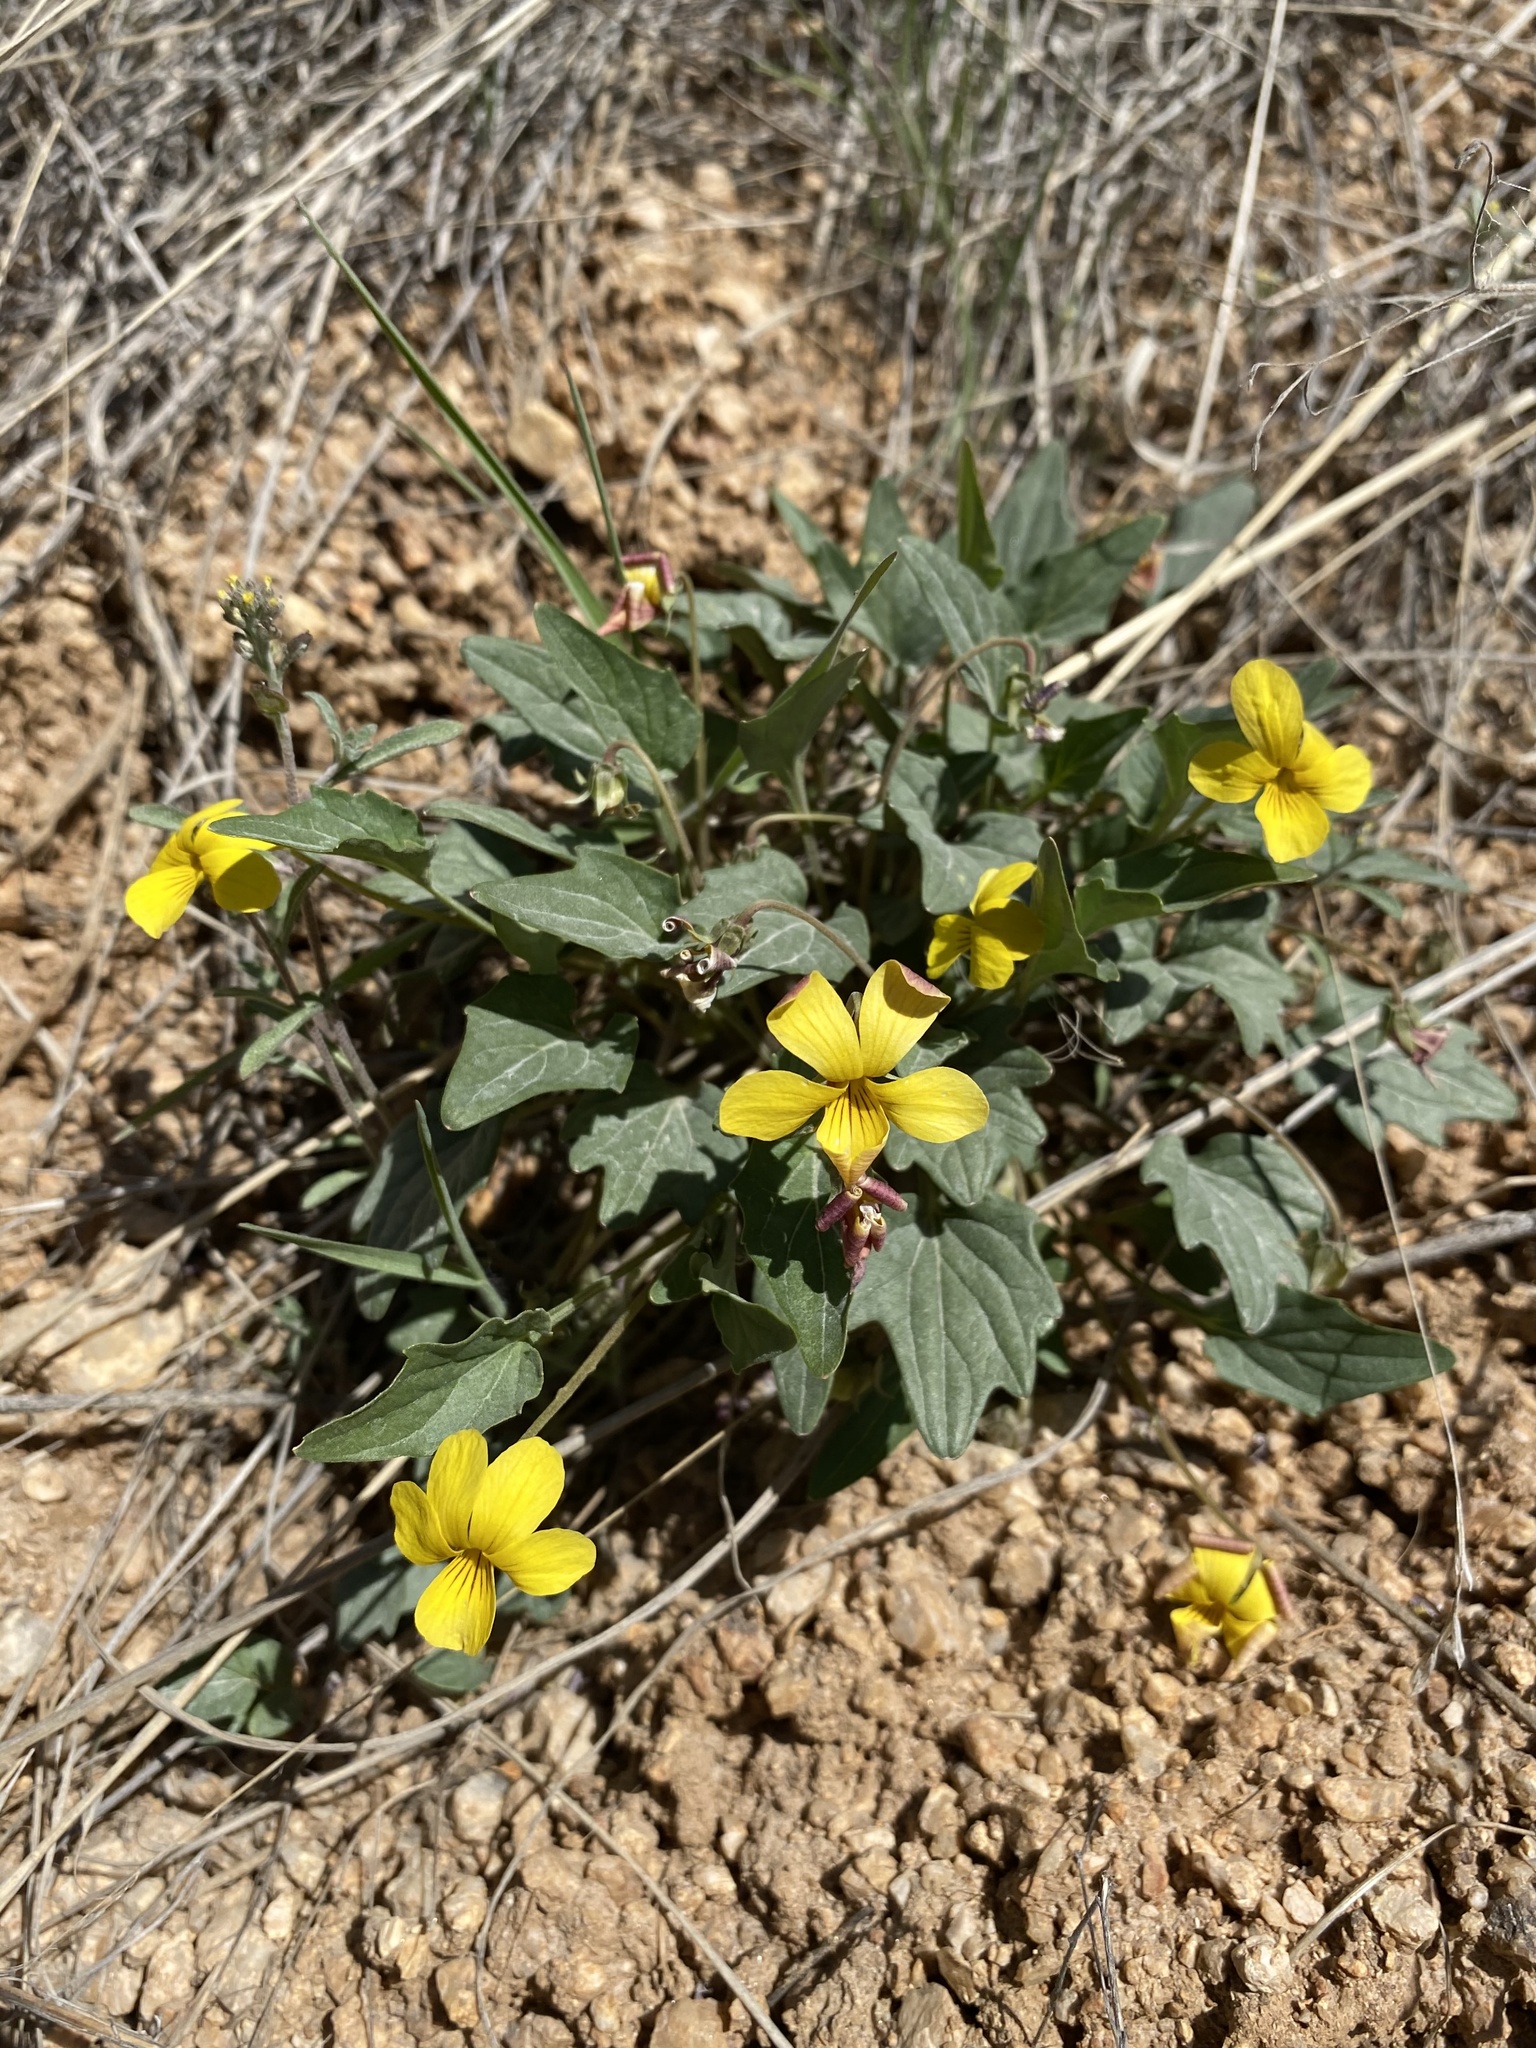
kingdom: Plantae
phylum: Tracheophyta
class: Magnoliopsida
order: Malpighiales
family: Violaceae
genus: Viola
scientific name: Viola purpurea
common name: Pine violet
